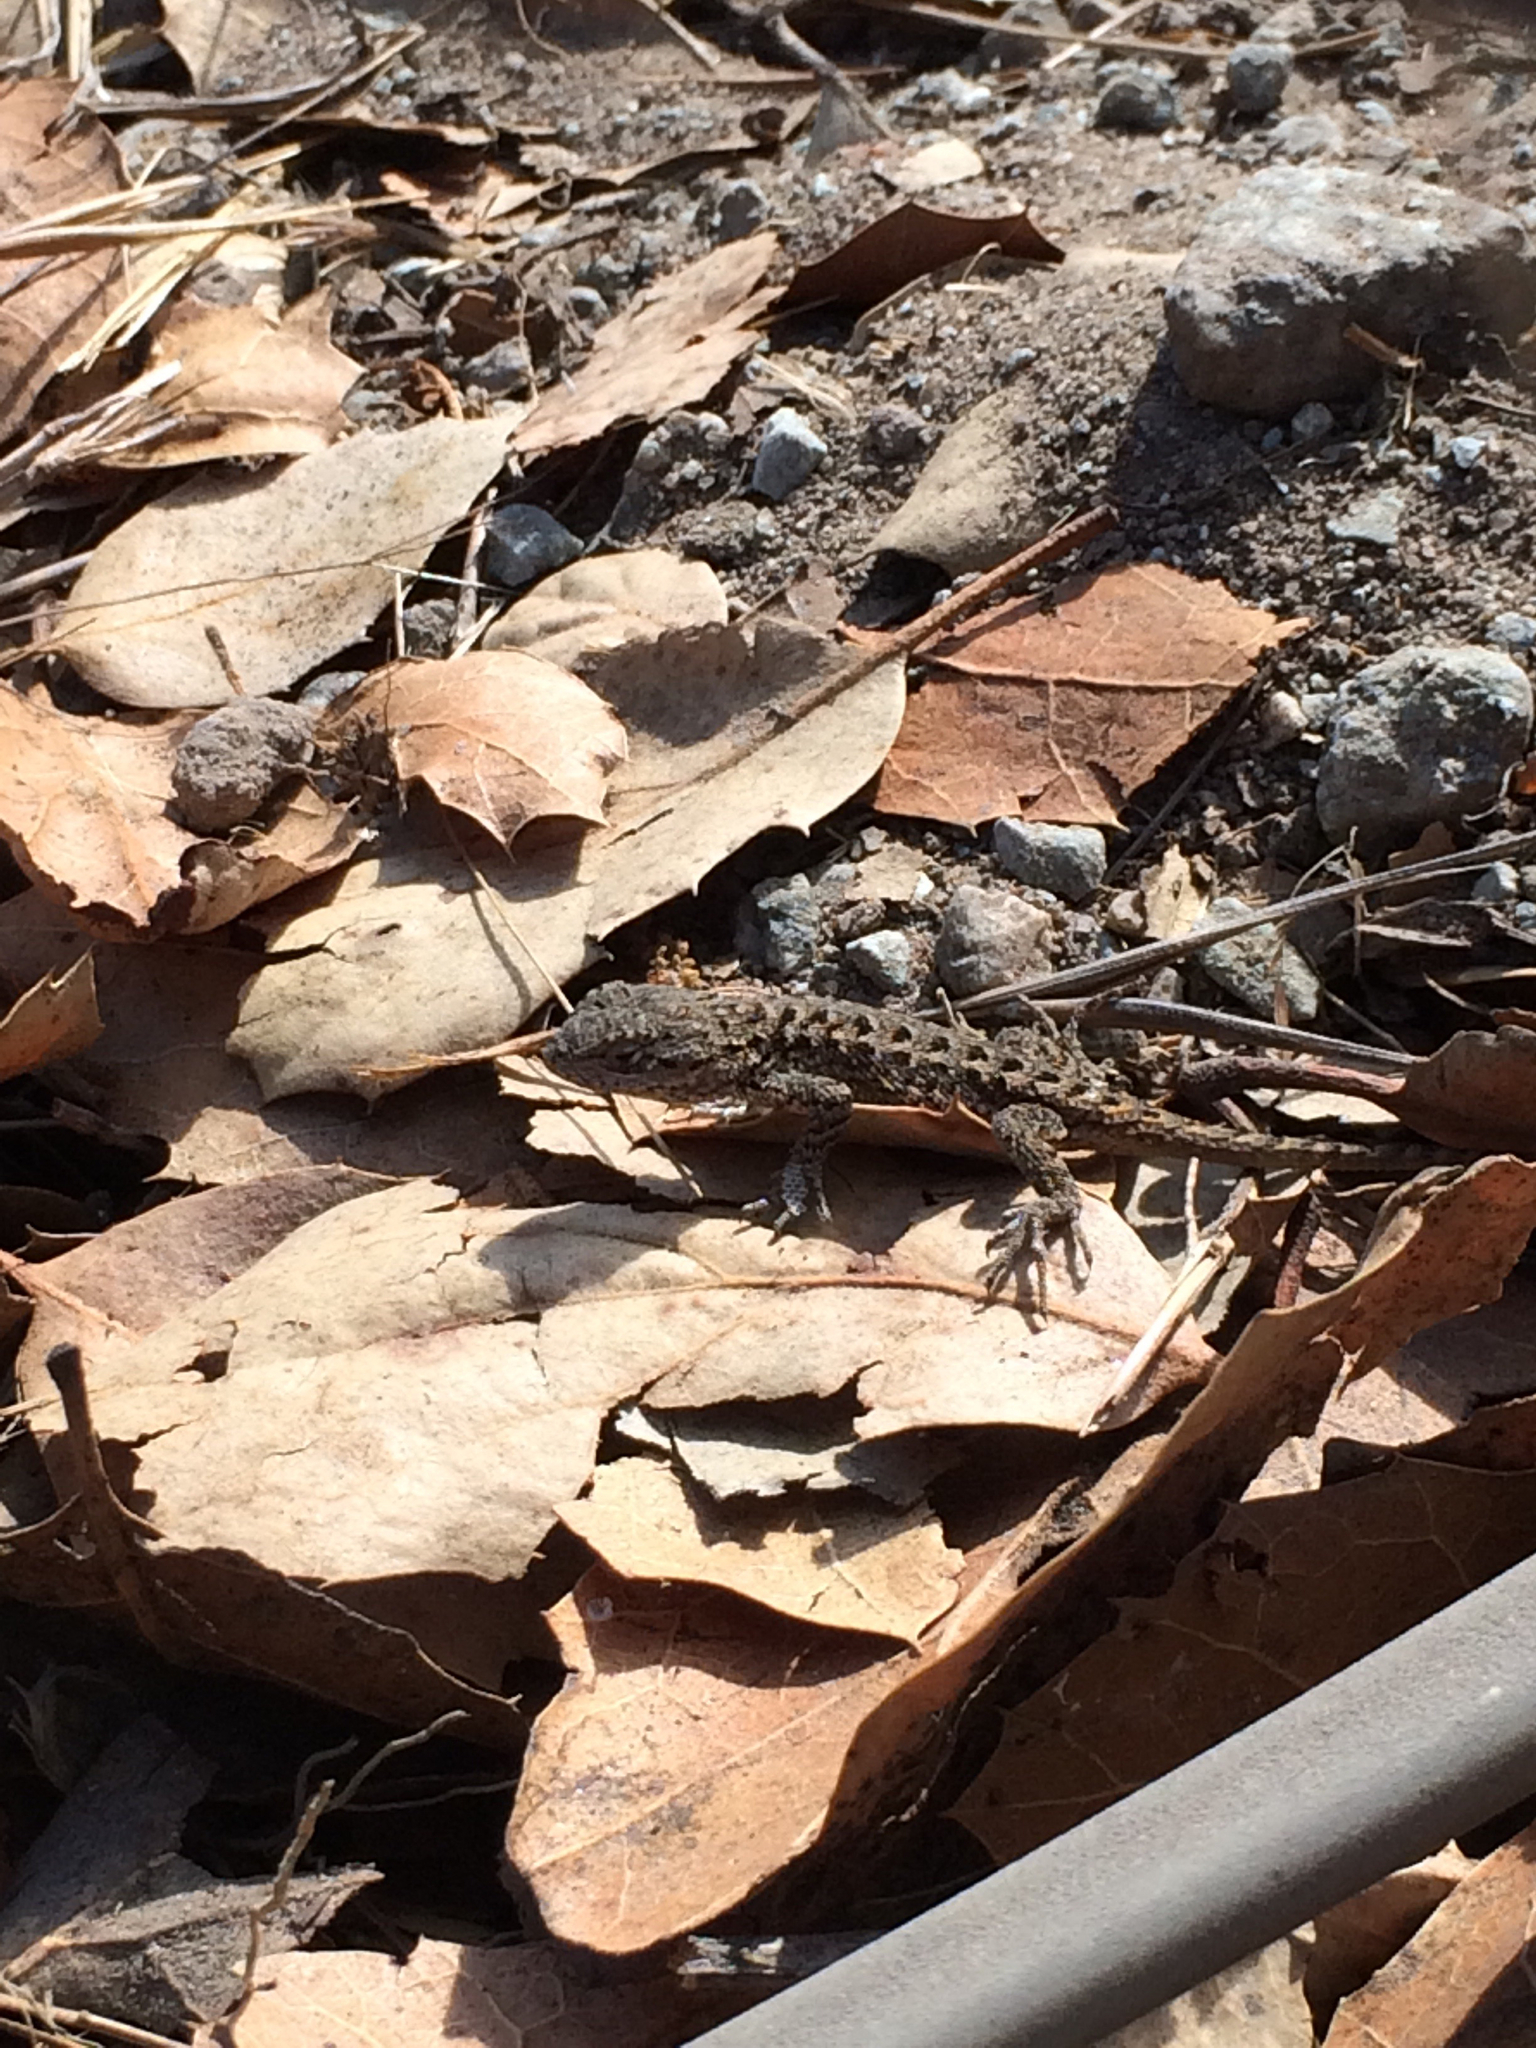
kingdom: Animalia
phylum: Chordata
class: Squamata
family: Phrynosomatidae
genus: Sceloporus
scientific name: Sceloporus occidentalis
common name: Western fence lizard
